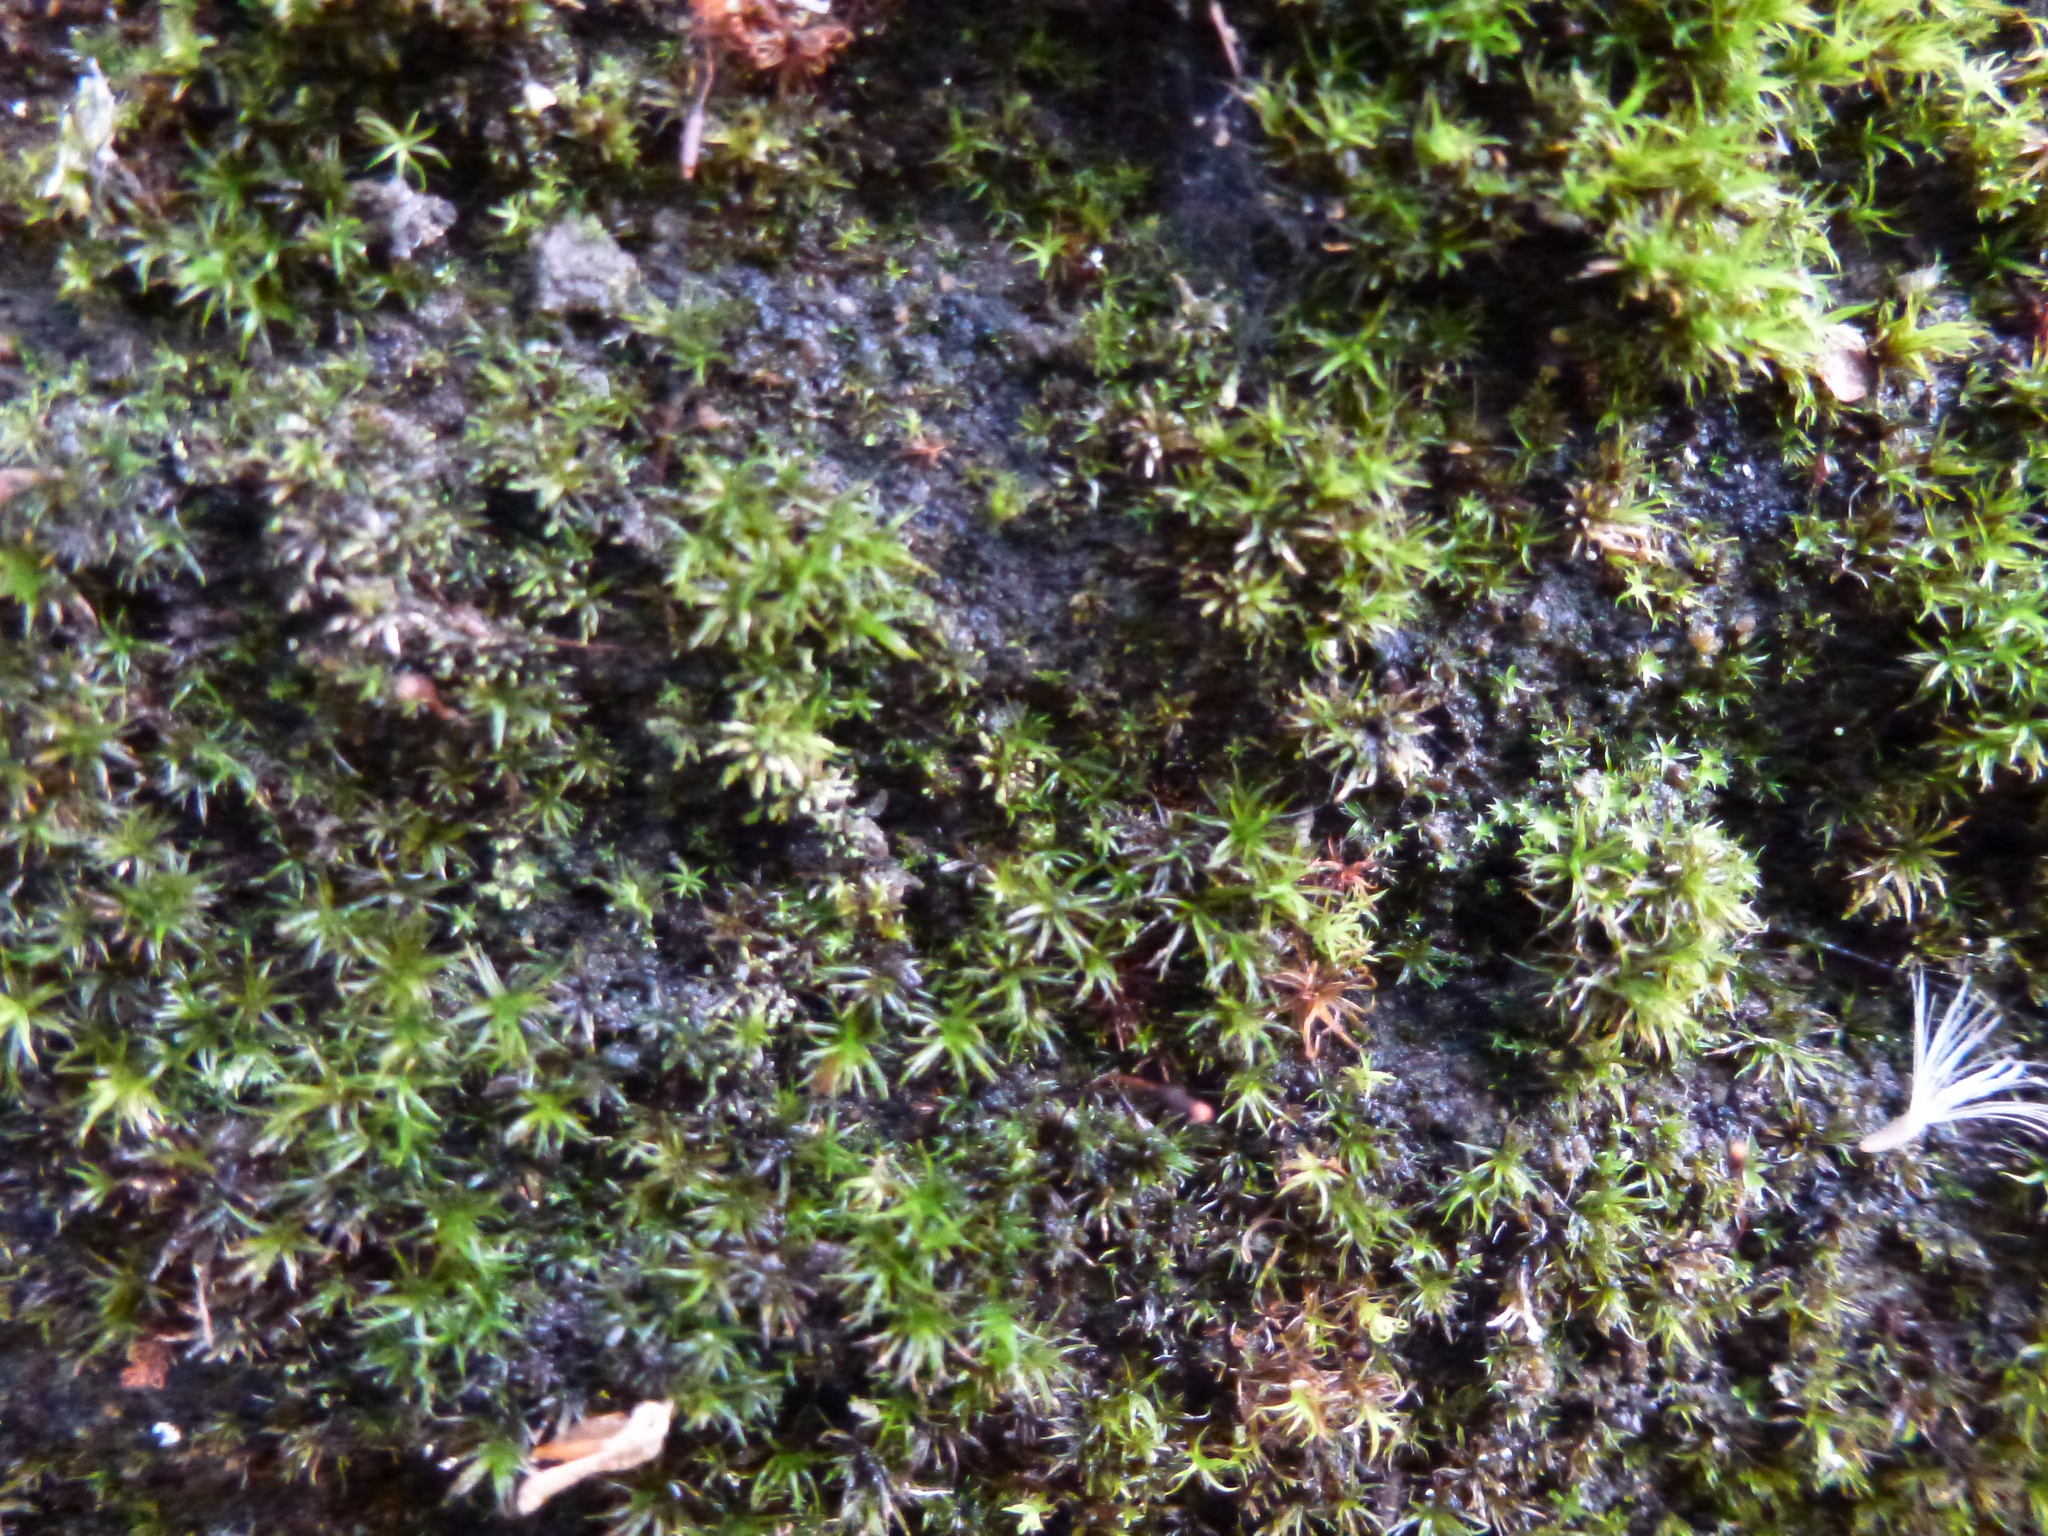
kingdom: Plantae
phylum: Bryophyta
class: Bryopsida
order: Pottiales
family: Pottiaceae
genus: Bryoerythrophyllum
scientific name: Bryoerythrophyllum recurvirostrum
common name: Red beard moss
